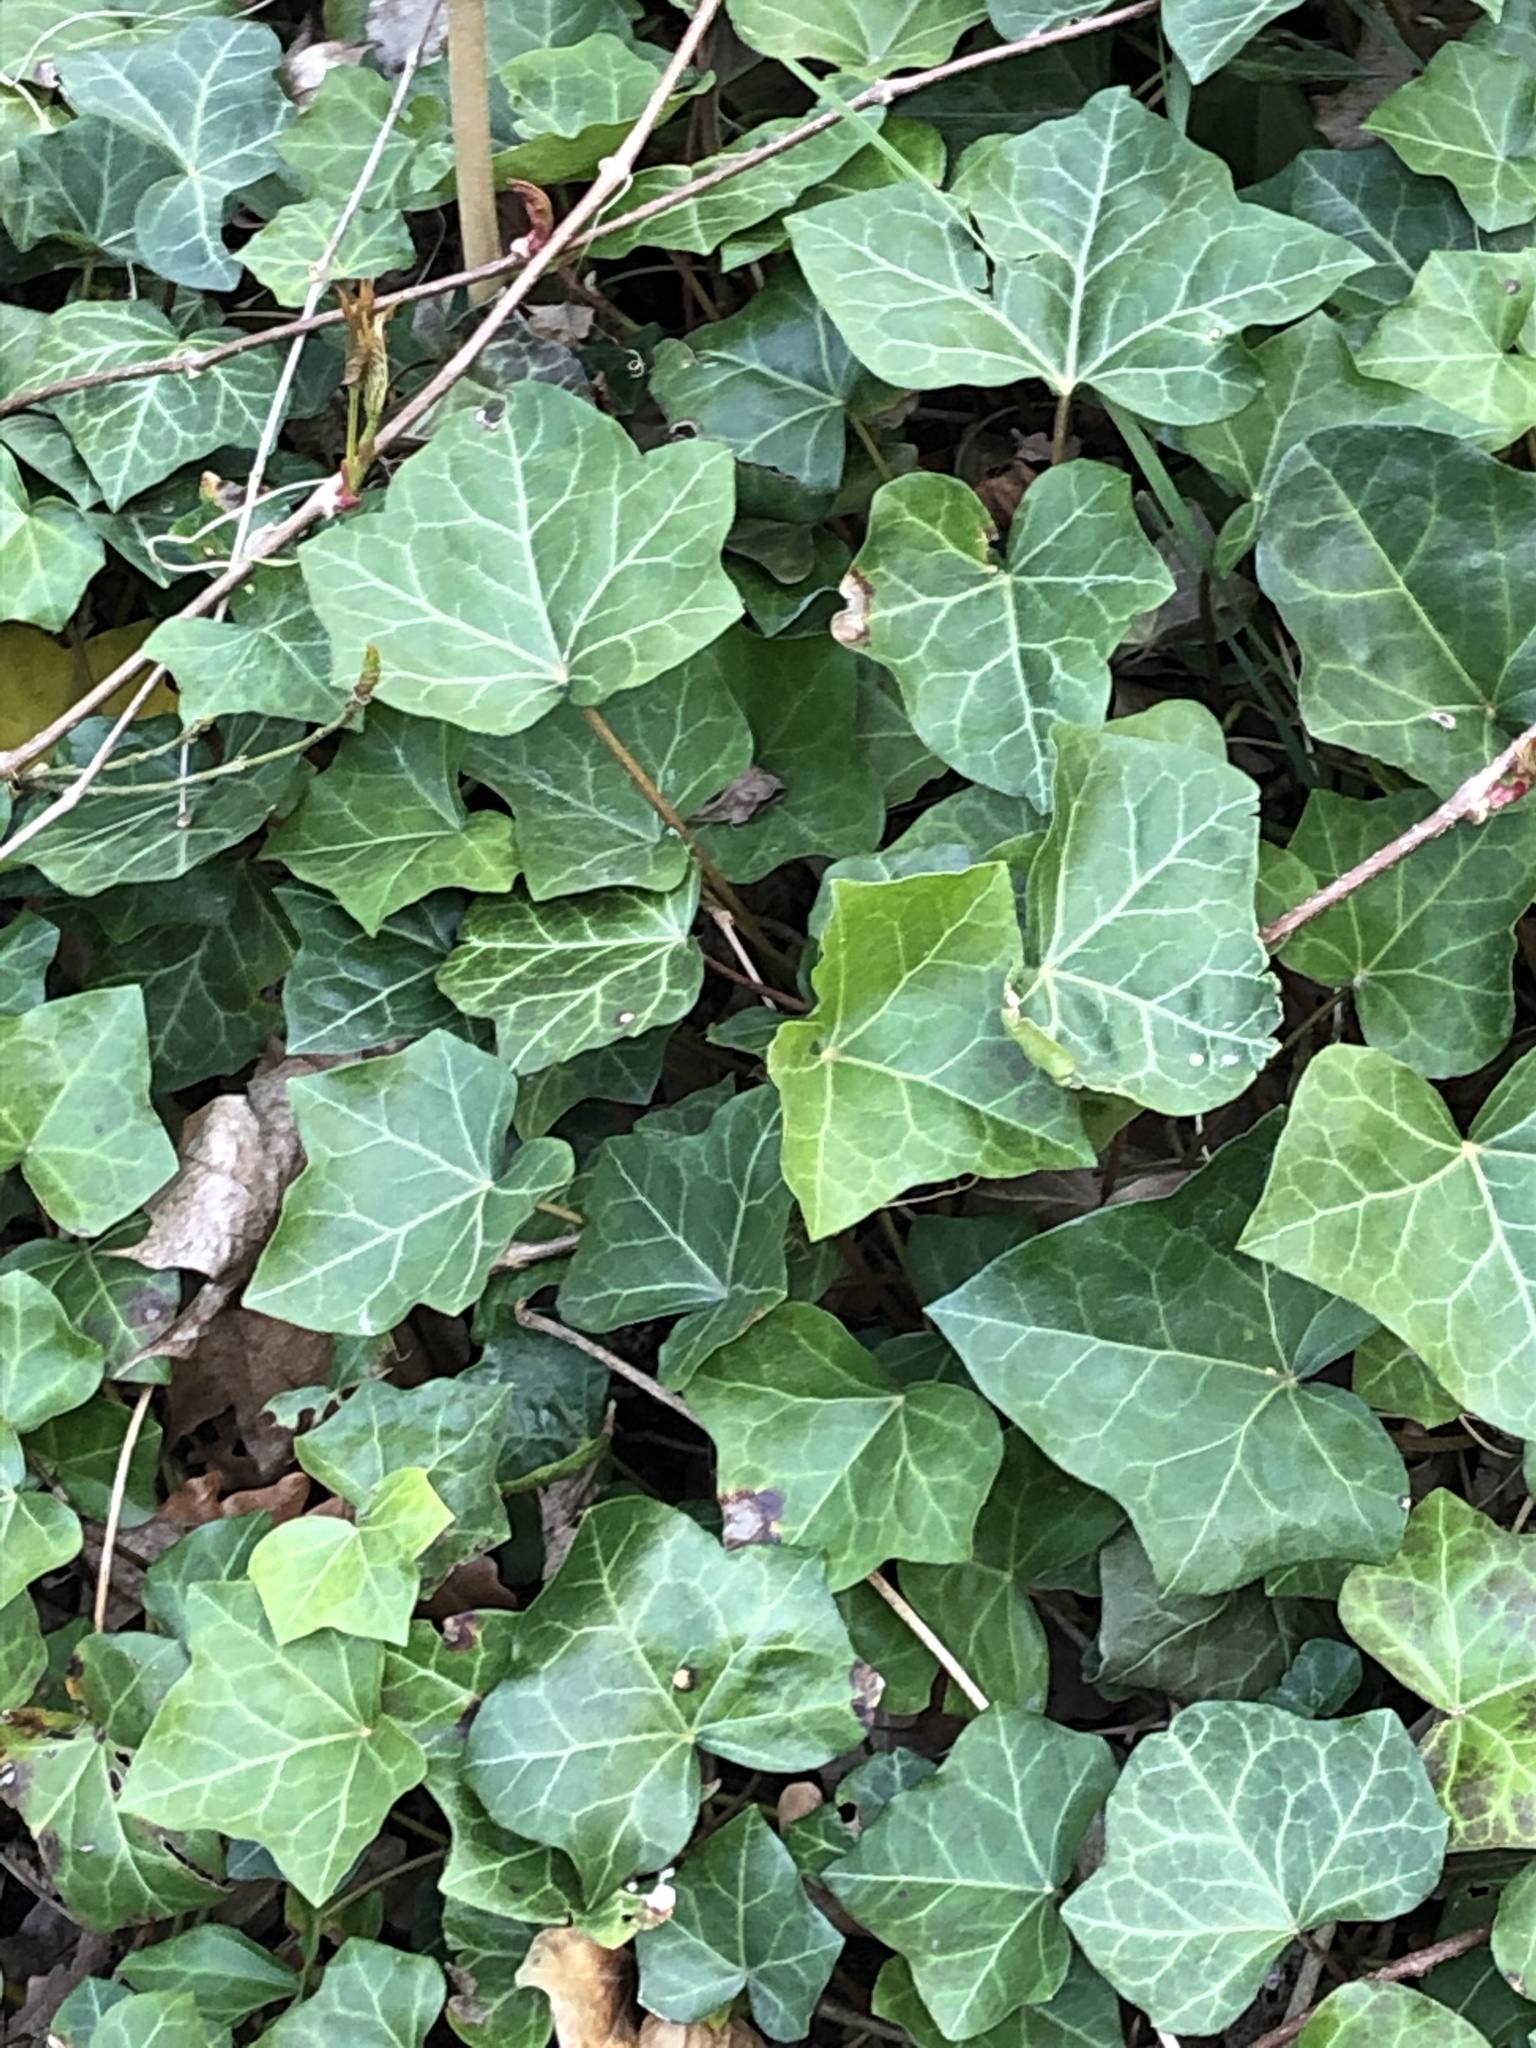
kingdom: Plantae
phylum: Tracheophyta
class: Magnoliopsida
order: Apiales
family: Araliaceae
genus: Hedera
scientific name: Hedera helix
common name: Ivy
